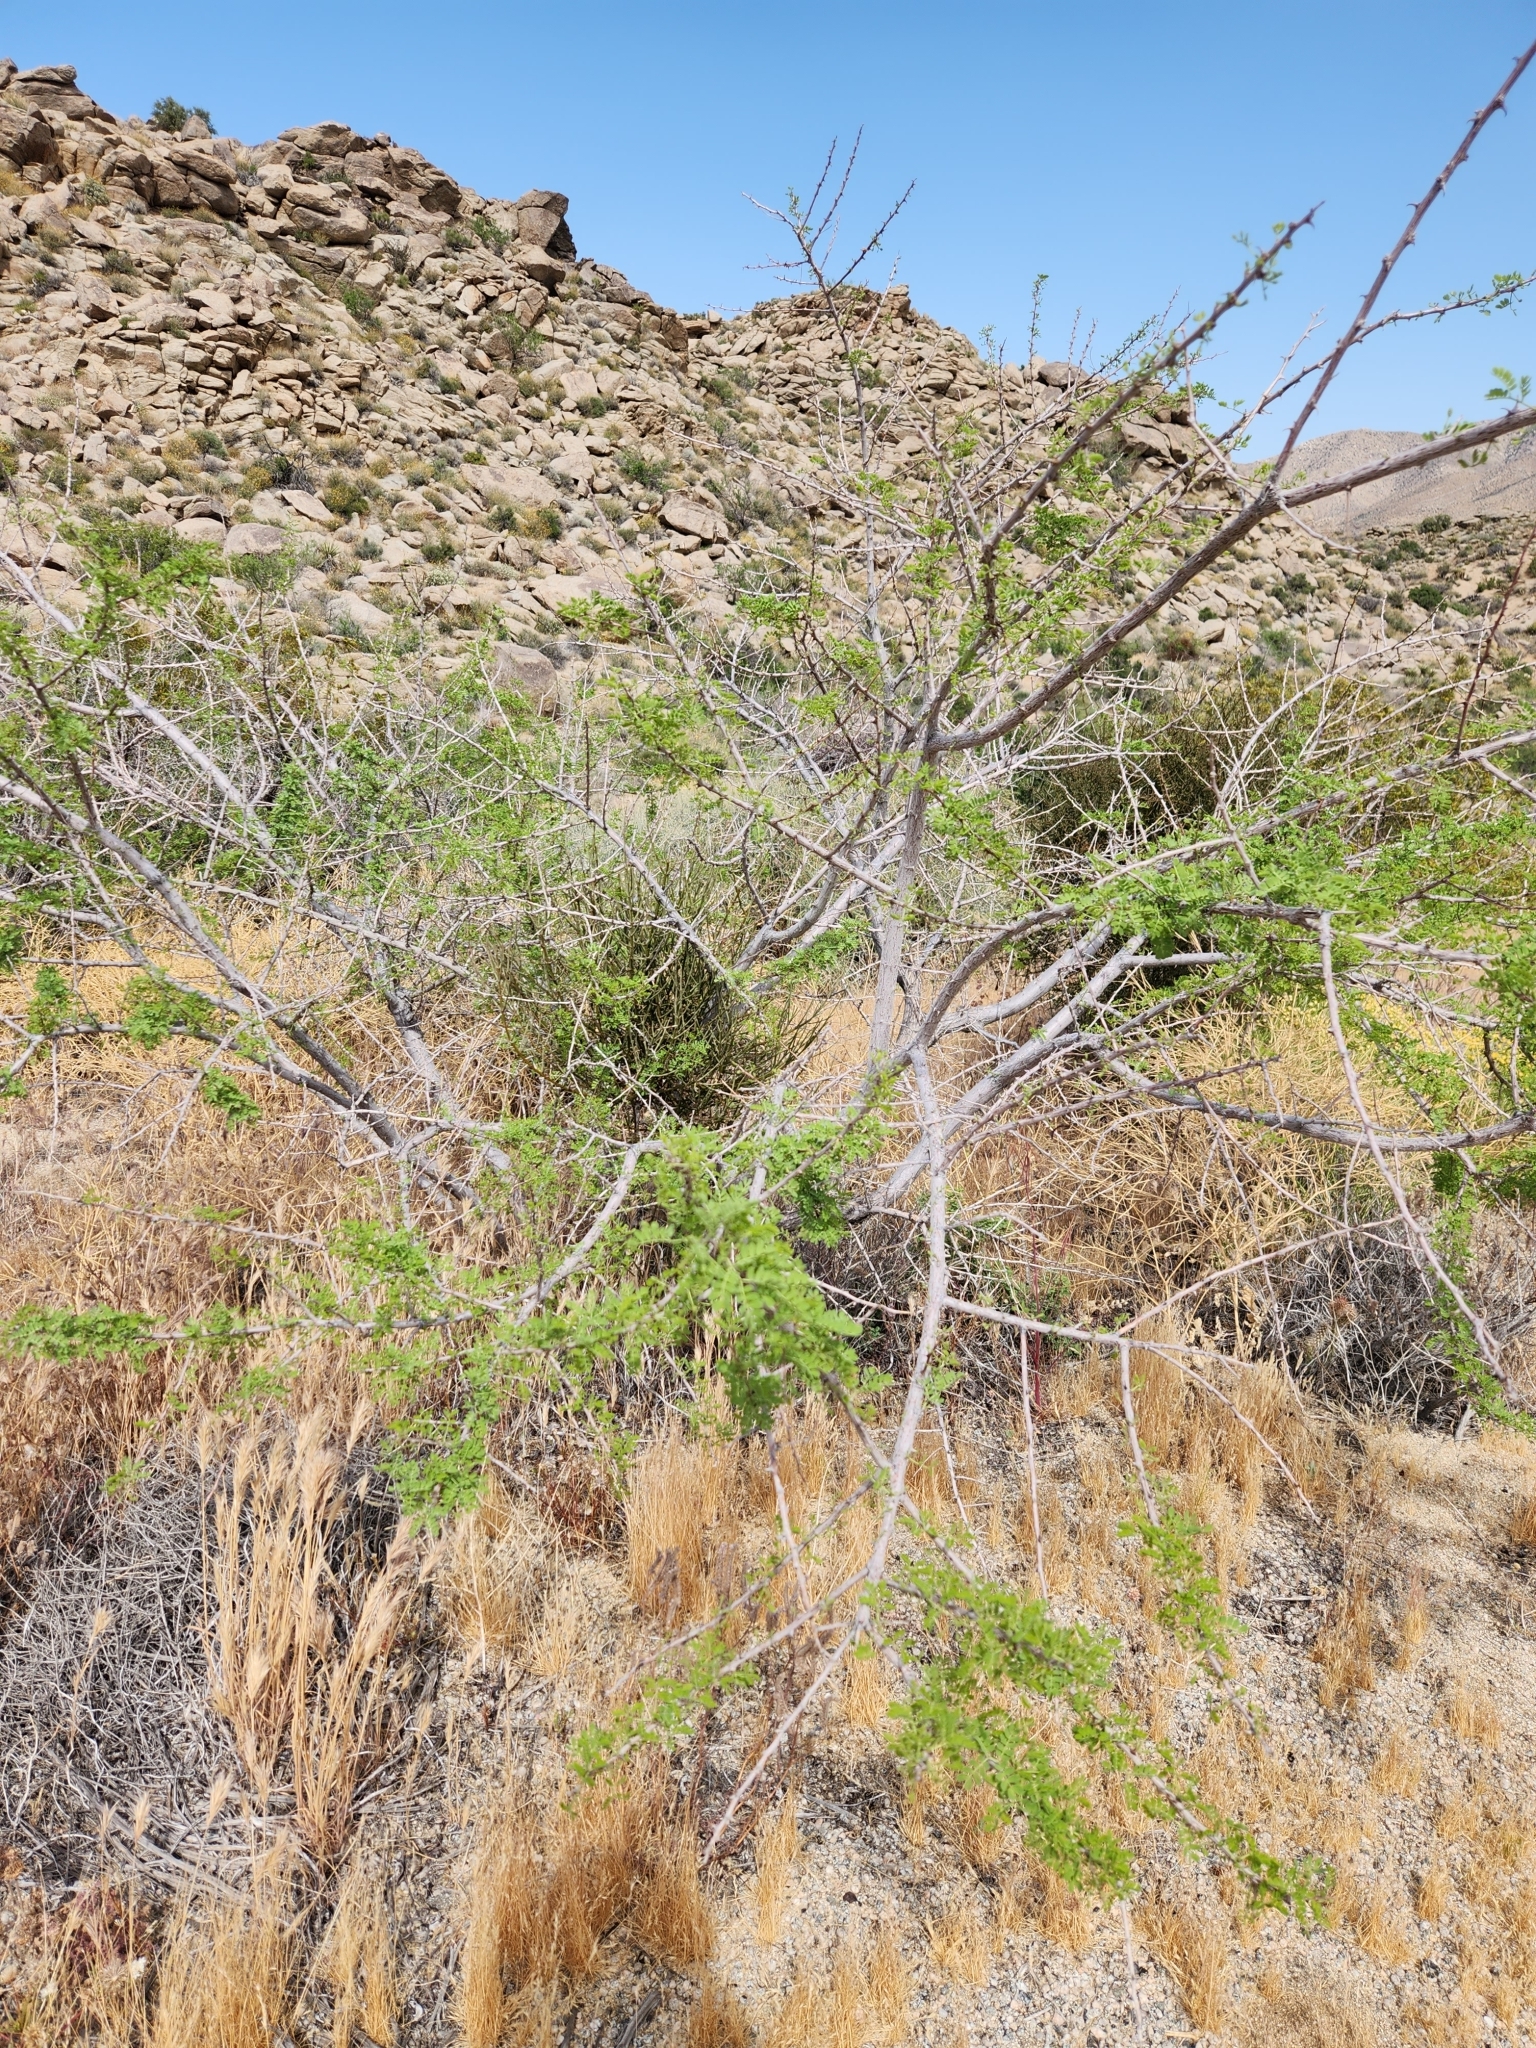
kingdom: Plantae
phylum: Tracheophyta
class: Magnoliopsida
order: Fabales
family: Fabaceae
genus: Senegalia
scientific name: Senegalia greggii
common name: Texas-mimosa
